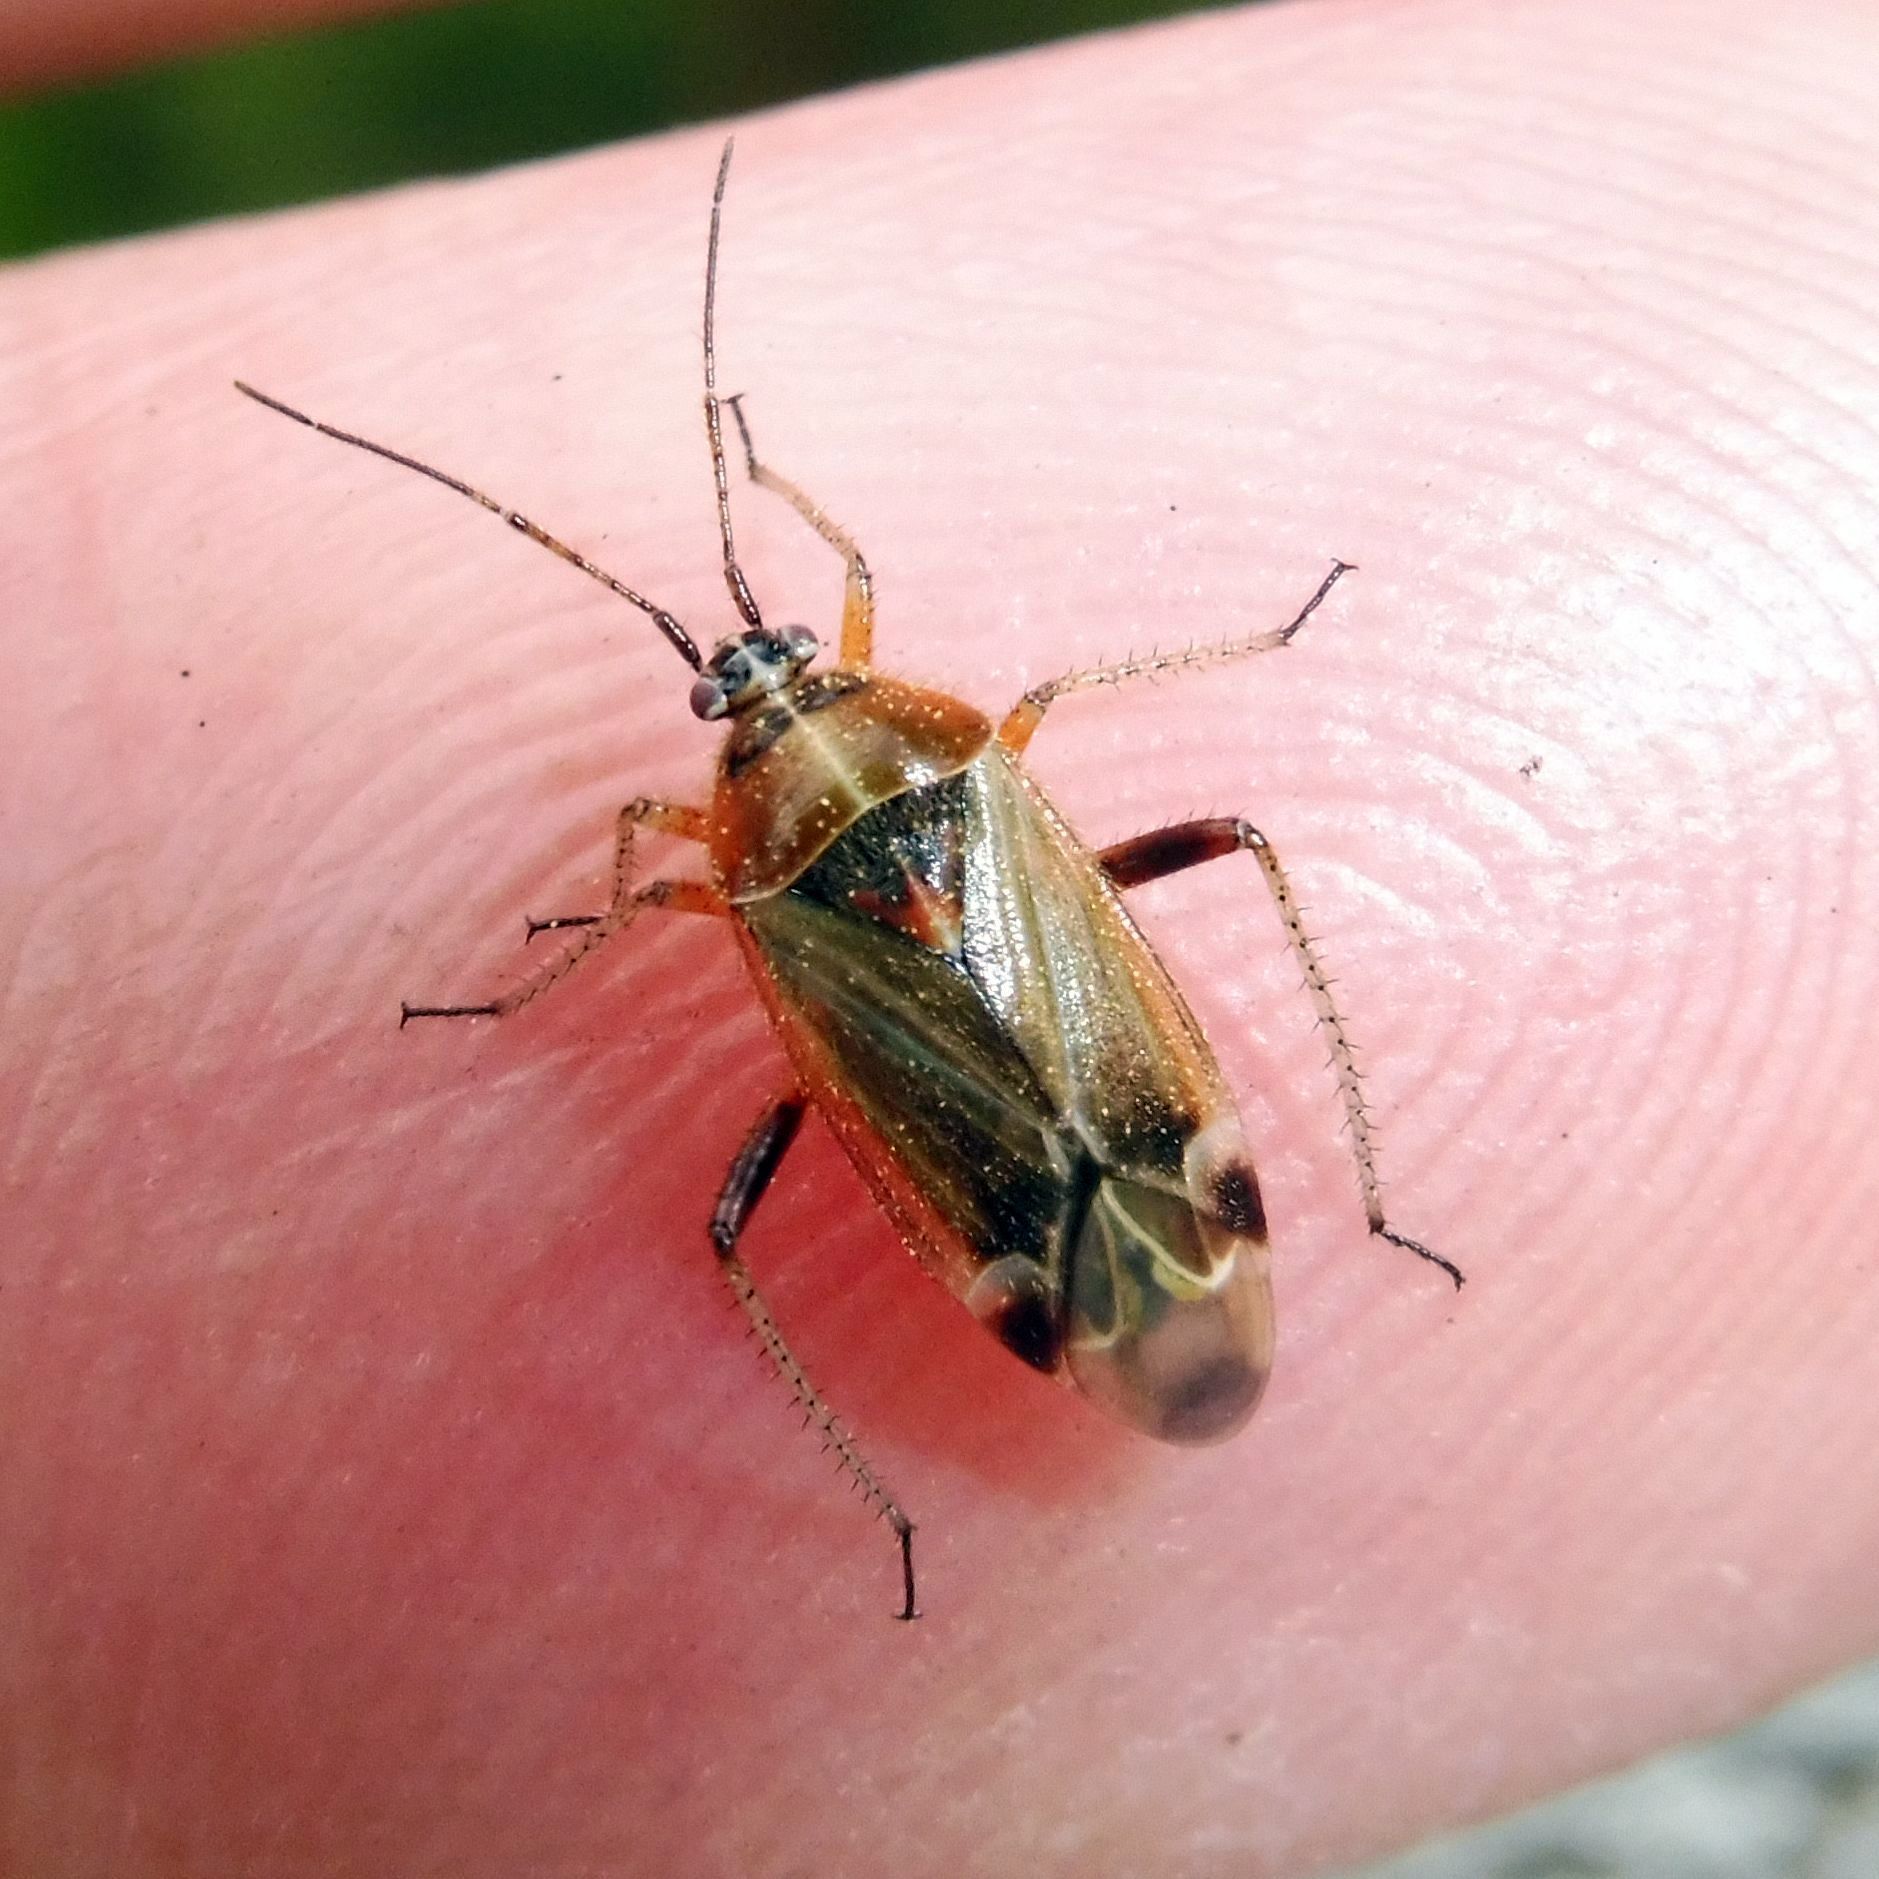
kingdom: Animalia
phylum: Arthropoda
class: Insecta
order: Hemiptera
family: Miridae
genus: Harpocera
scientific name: Harpocera thoracica
